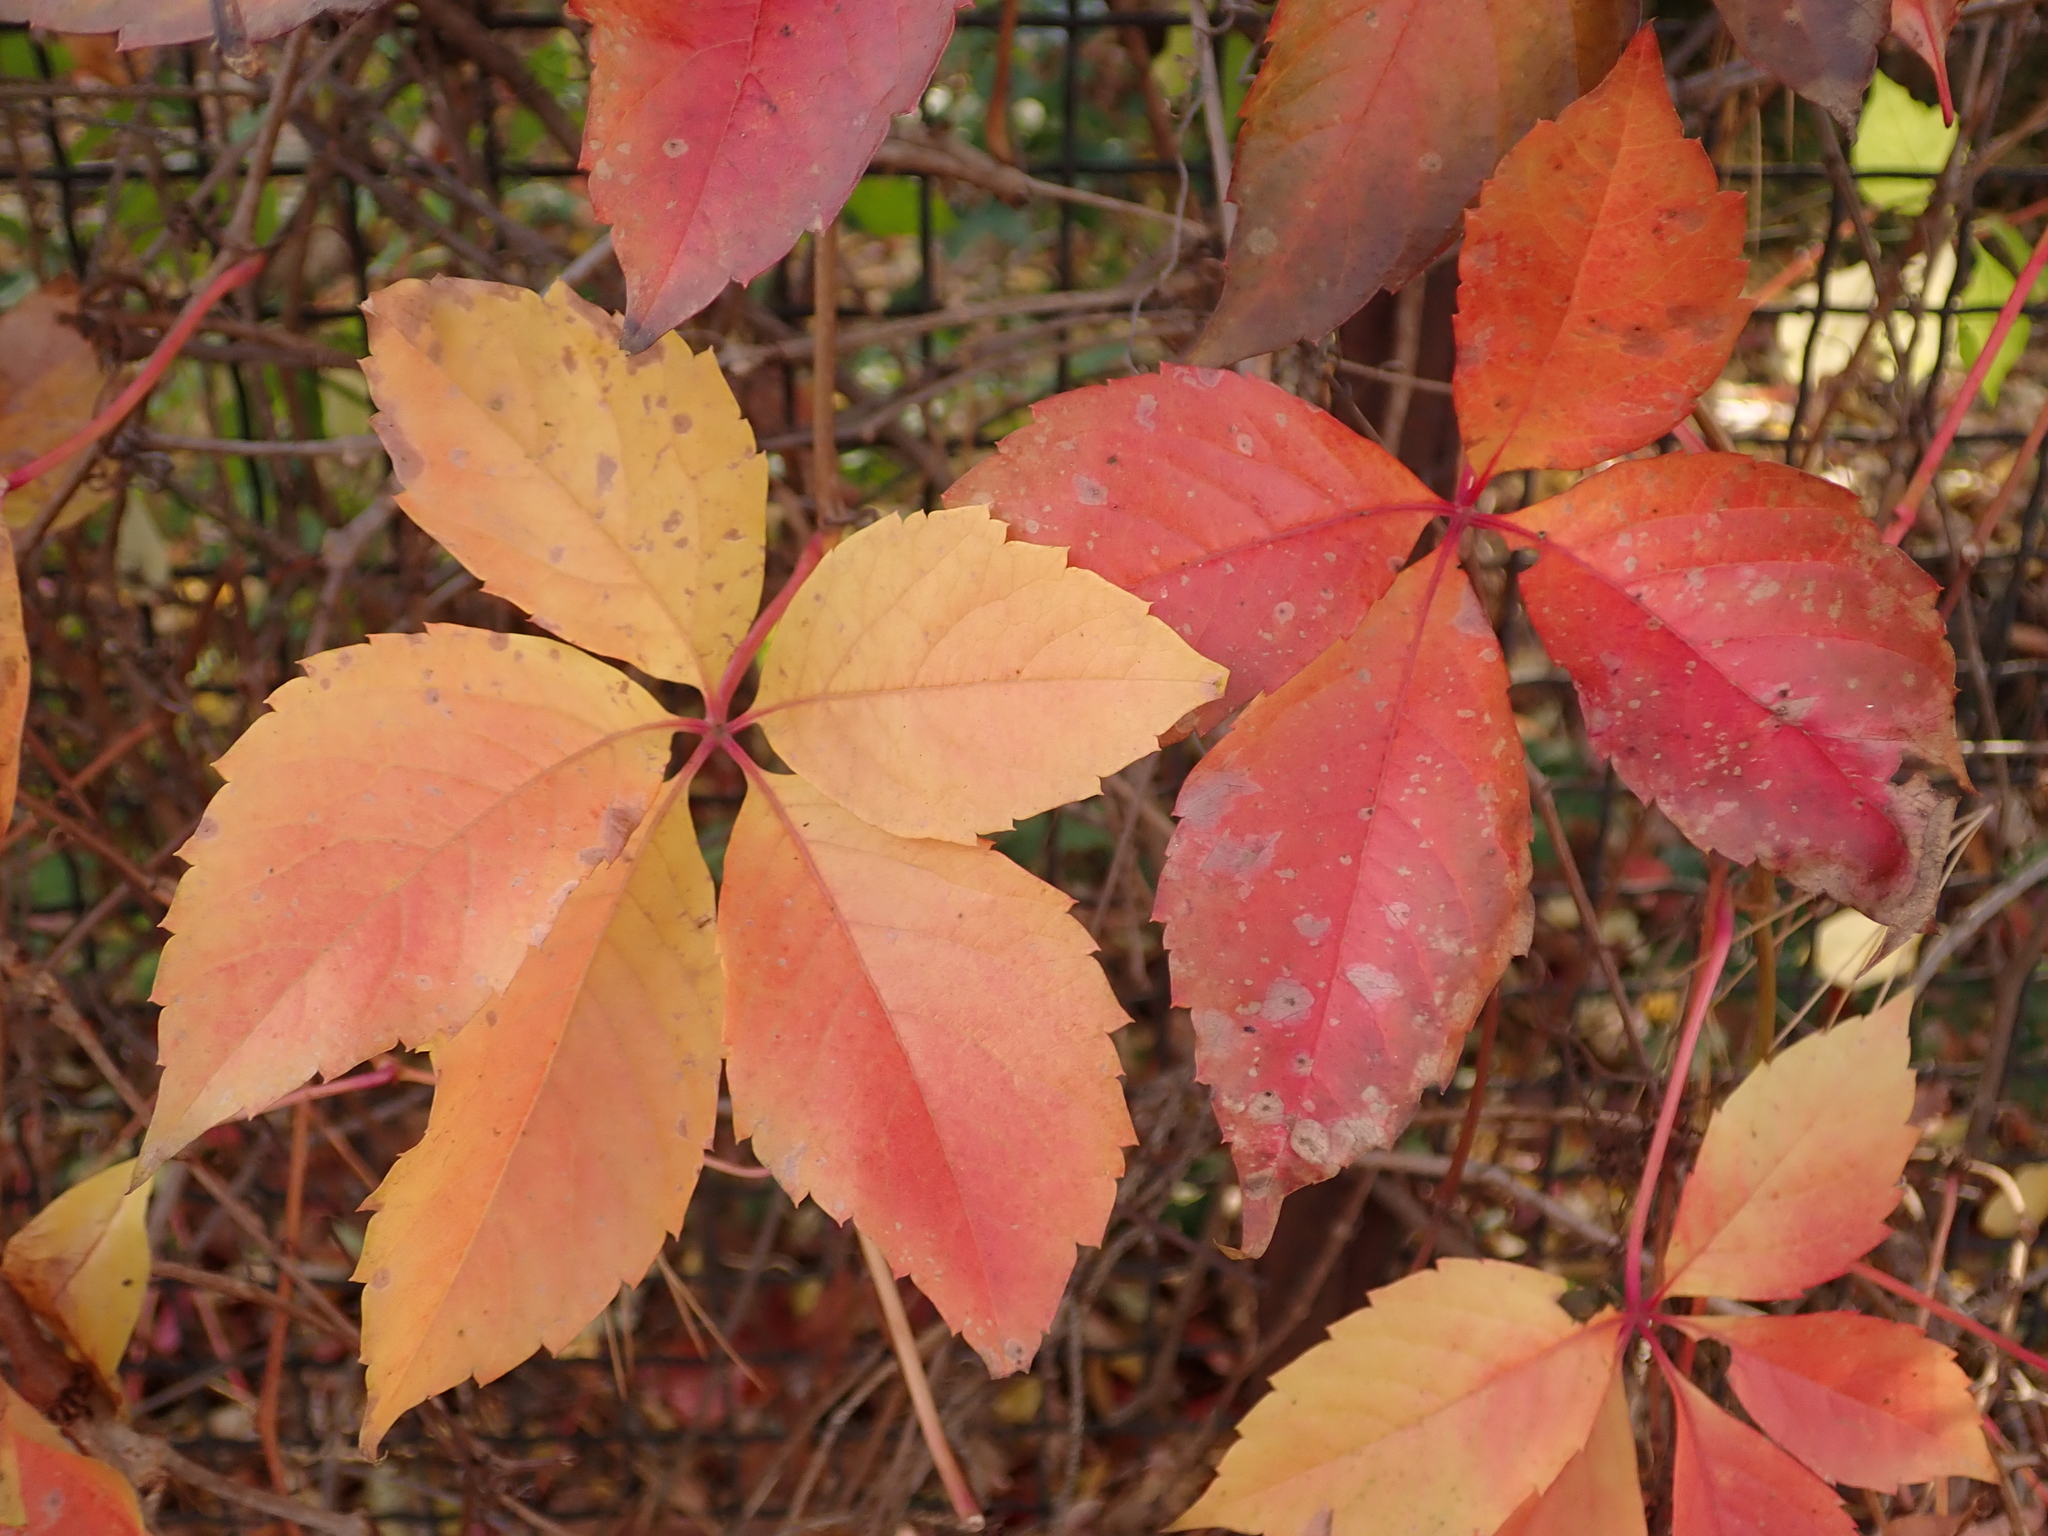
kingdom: Plantae
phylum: Tracheophyta
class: Magnoliopsida
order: Vitales
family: Vitaceae
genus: Parthenocissus
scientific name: Parthenocissus quinquefolia
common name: Virginia-creeper
